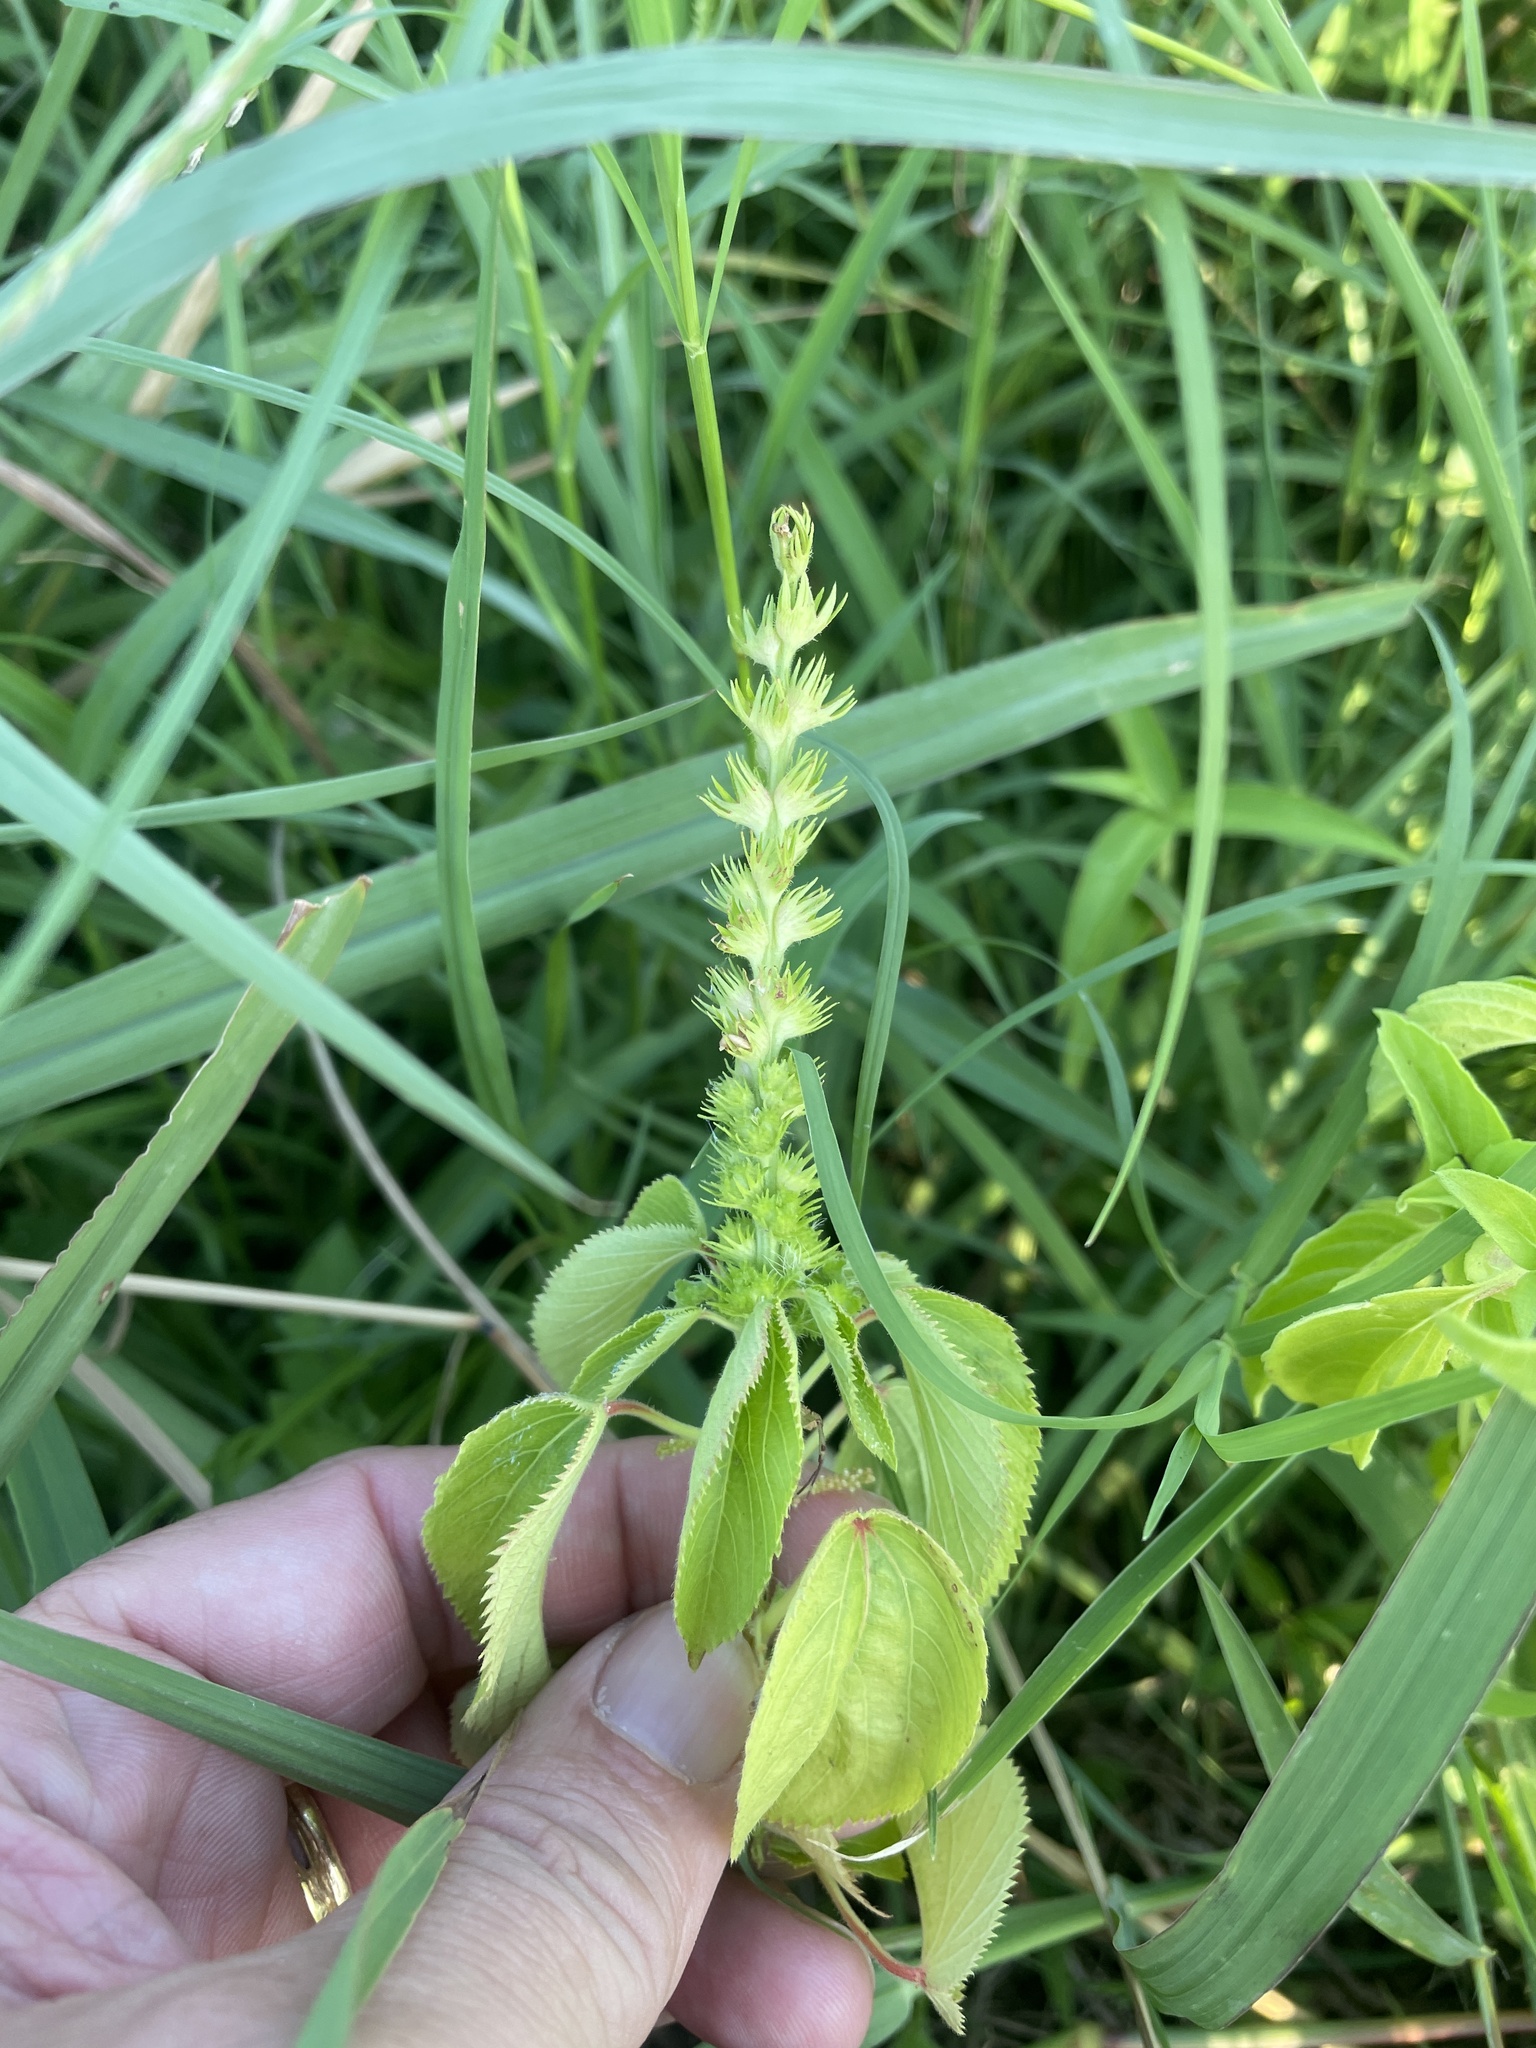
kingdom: Plantae
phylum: Tracheophyta
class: Magnoliopsida
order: Malpighiales
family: Euphorbiaceae
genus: Acalypha
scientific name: Acalypha ostryifolia
